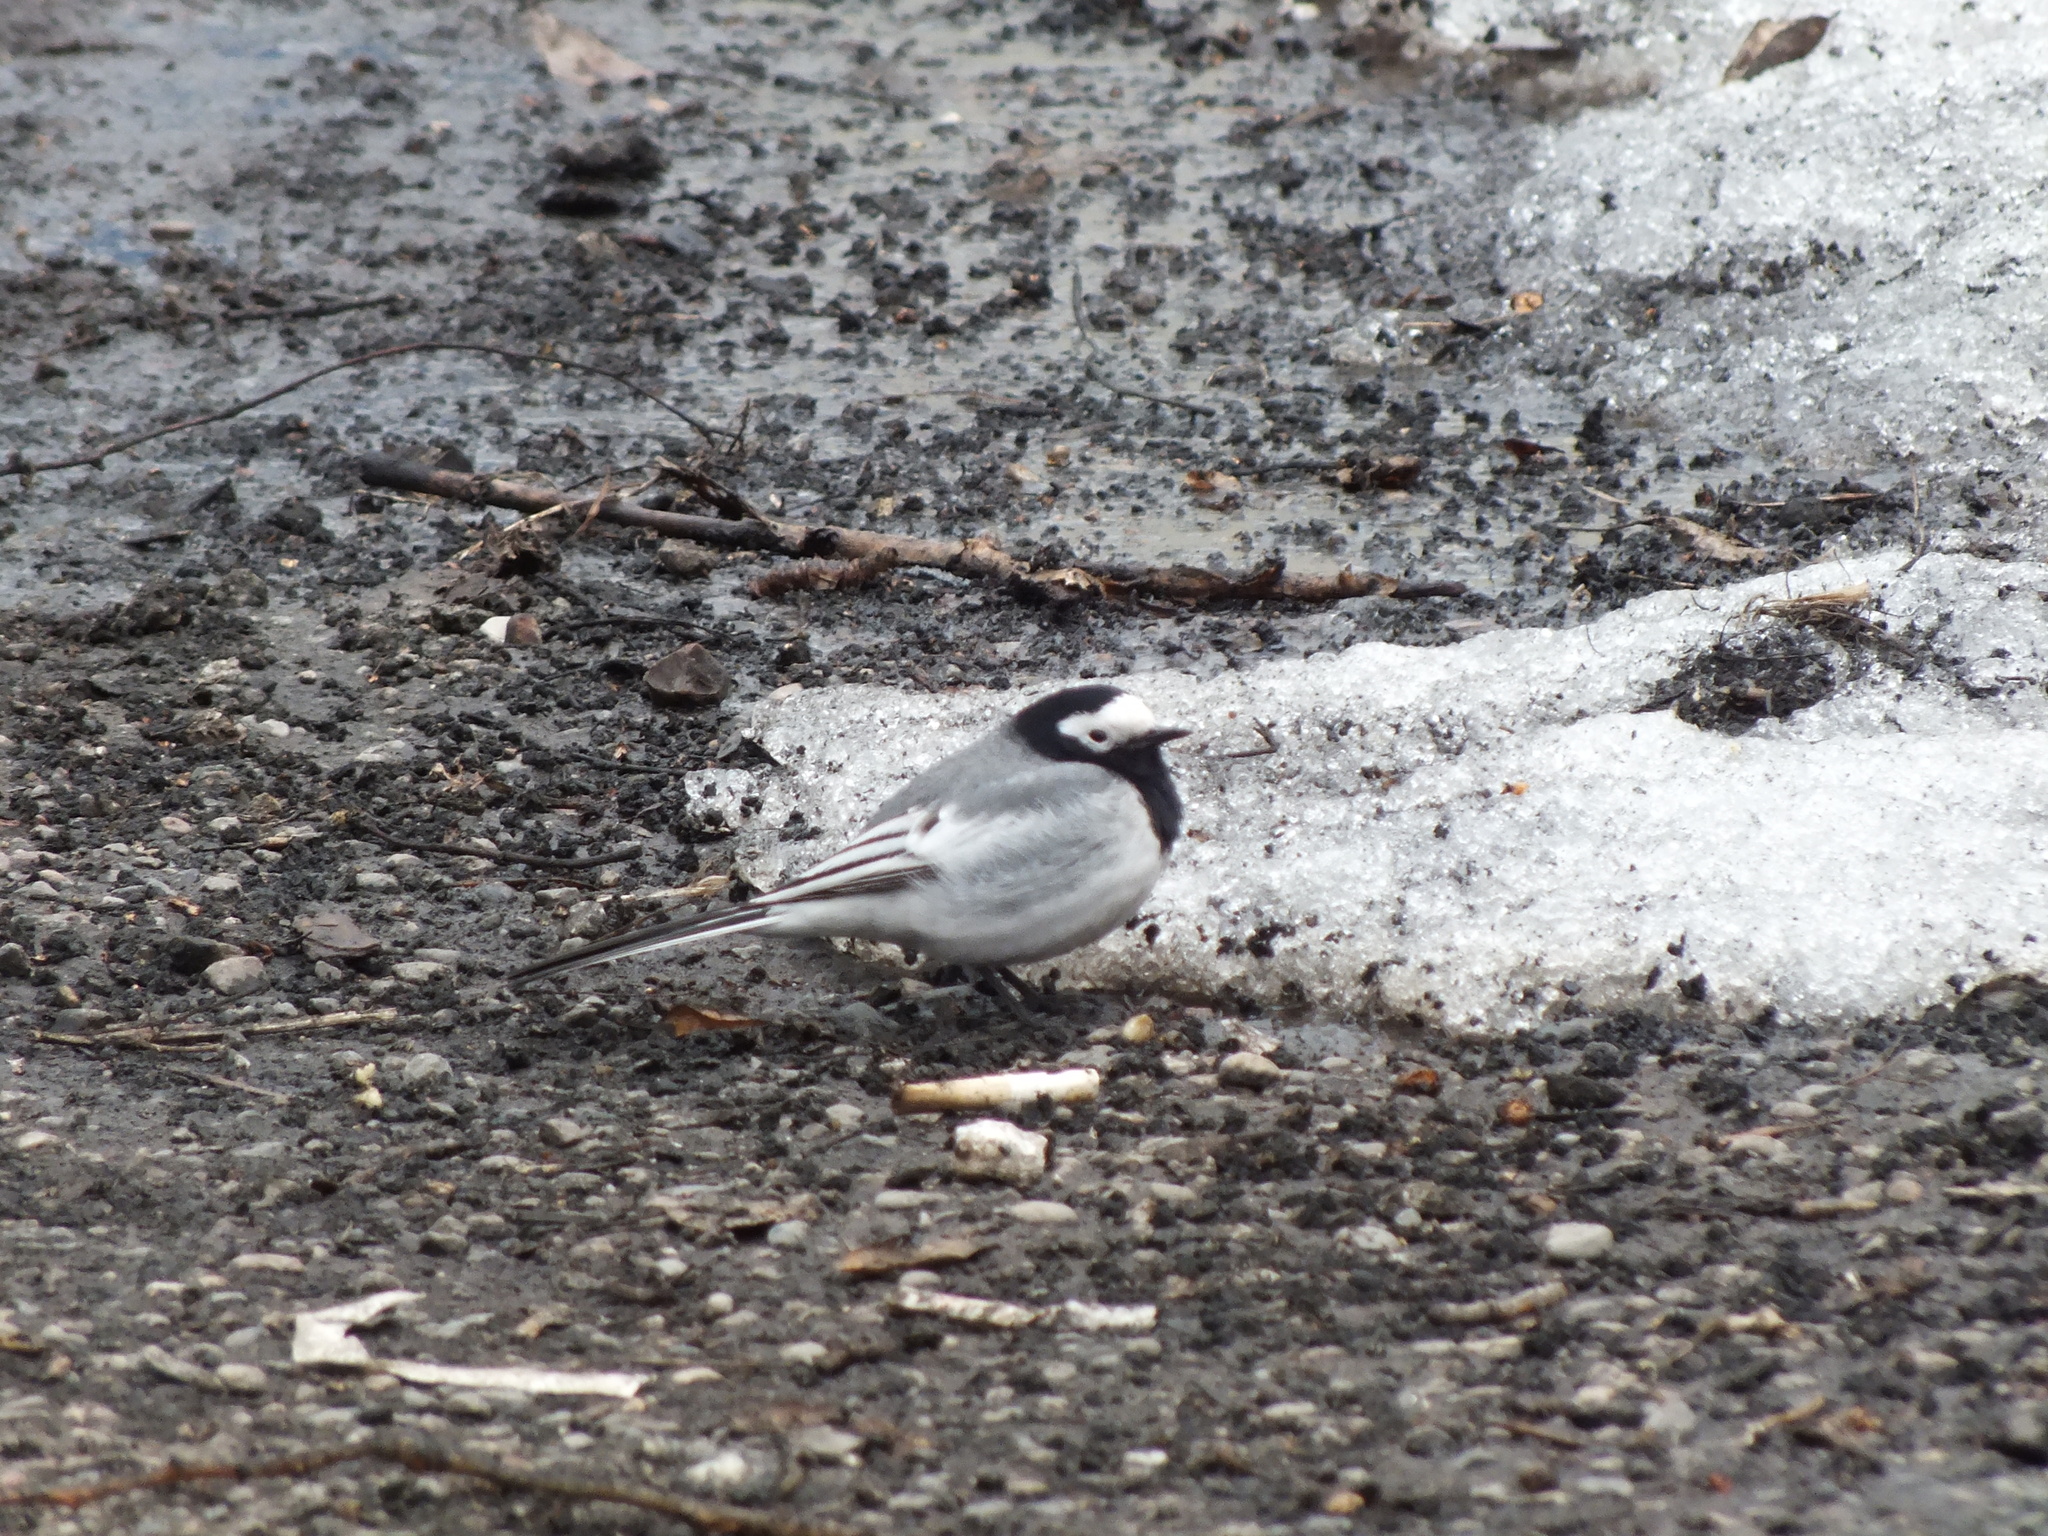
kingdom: Animalia
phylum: Chordata
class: Aves
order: Passeriformes
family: Motacillidae
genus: Motacilla
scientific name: Motacilla alba
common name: White wagtail
